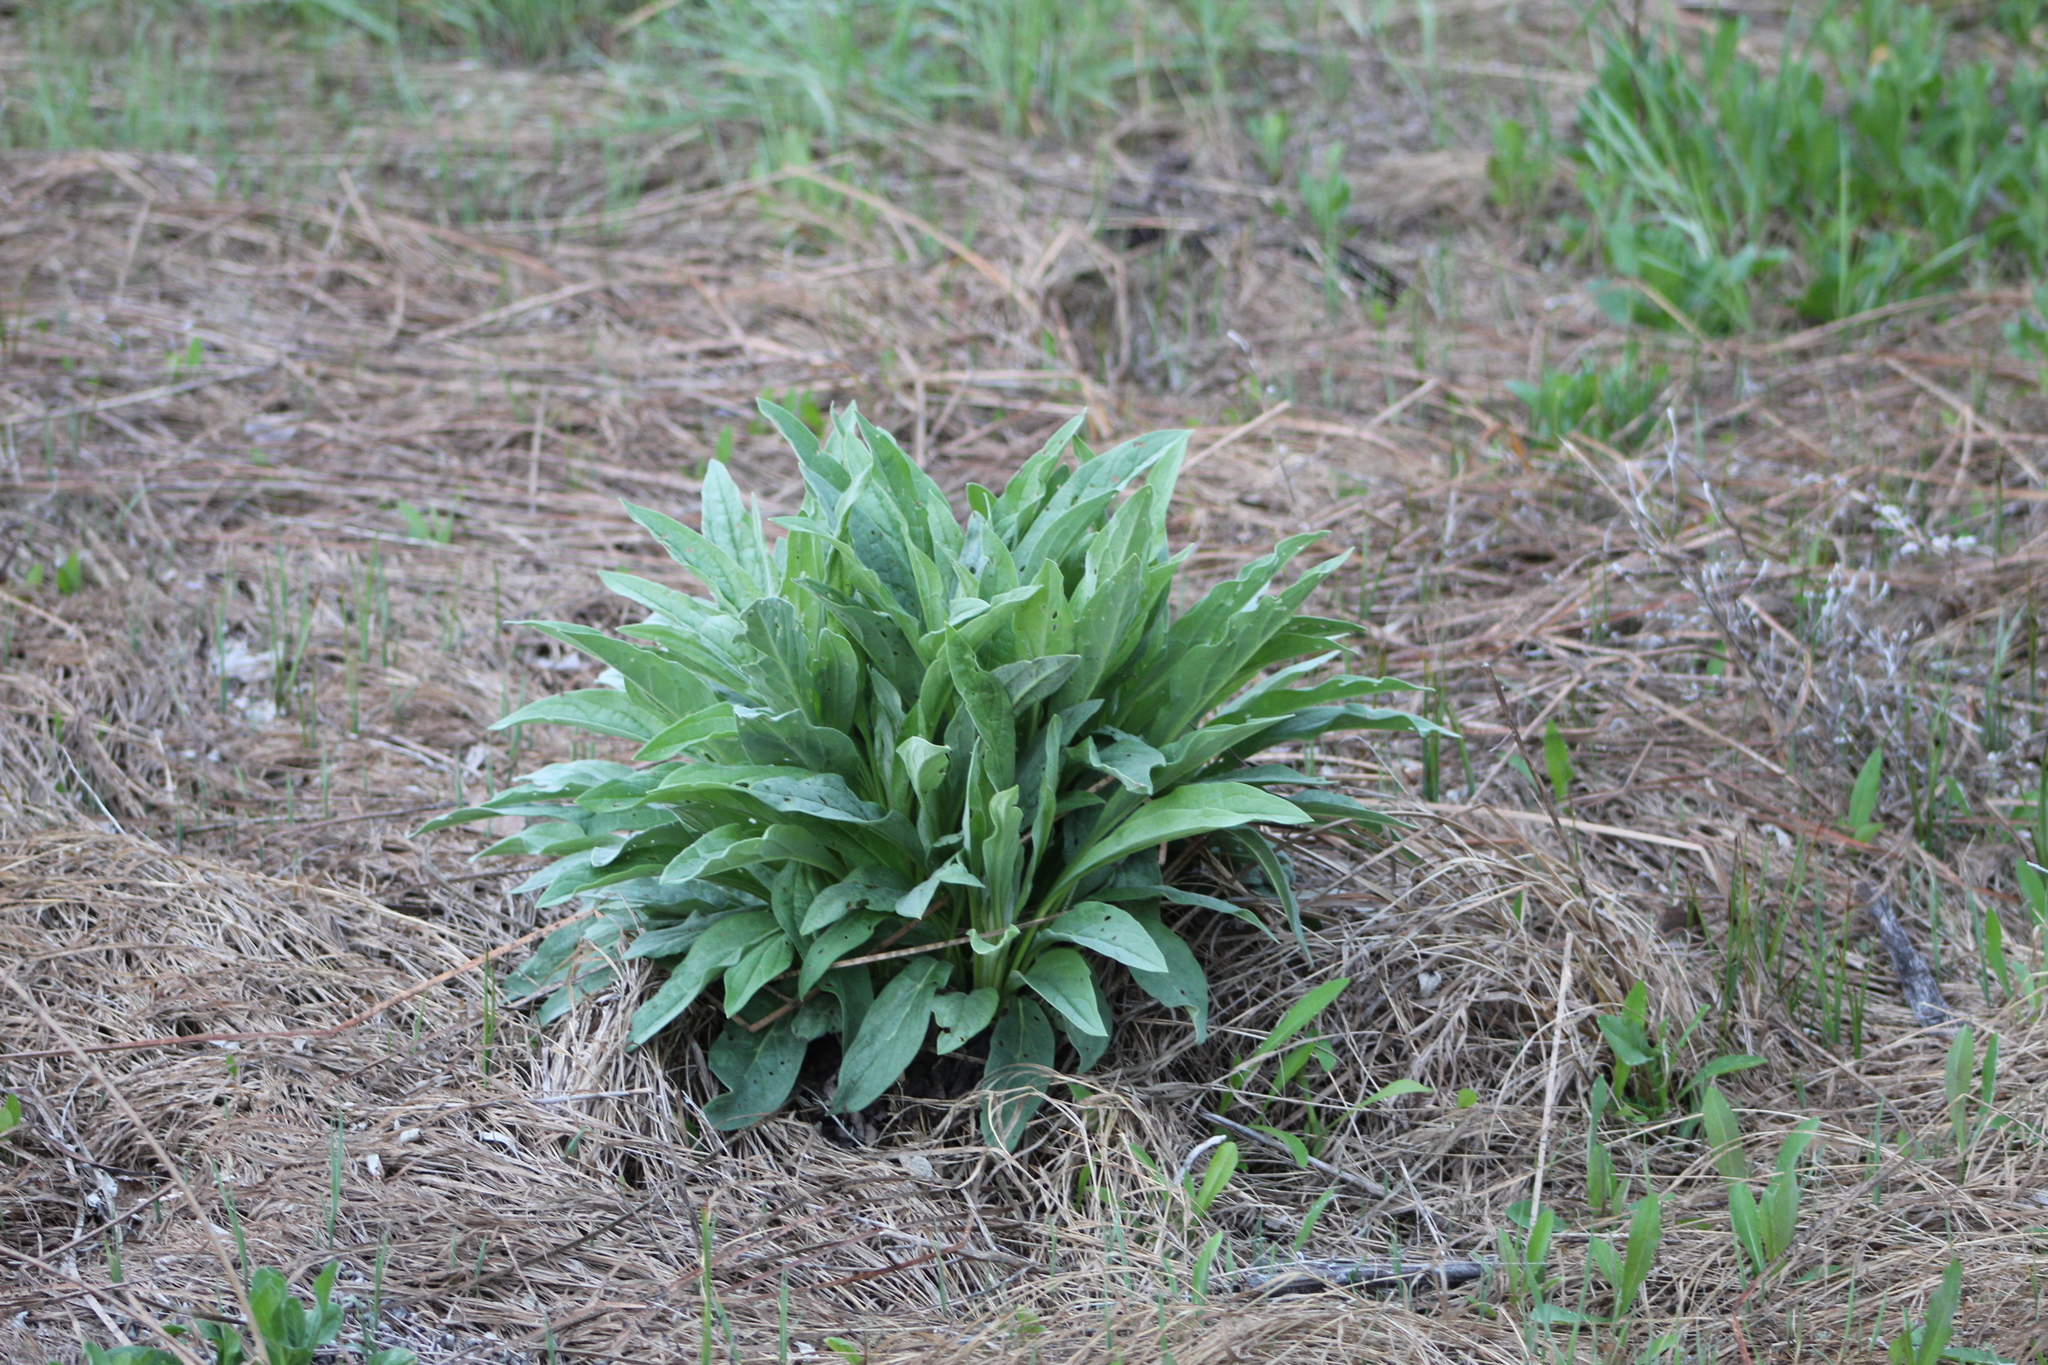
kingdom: Plantae
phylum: Tracheophyta
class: Magnoliopsida
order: Boraginales
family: Boraginaceae
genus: Cynoglossum
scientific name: Cynoglossum officinale
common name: Hound's-tongue
